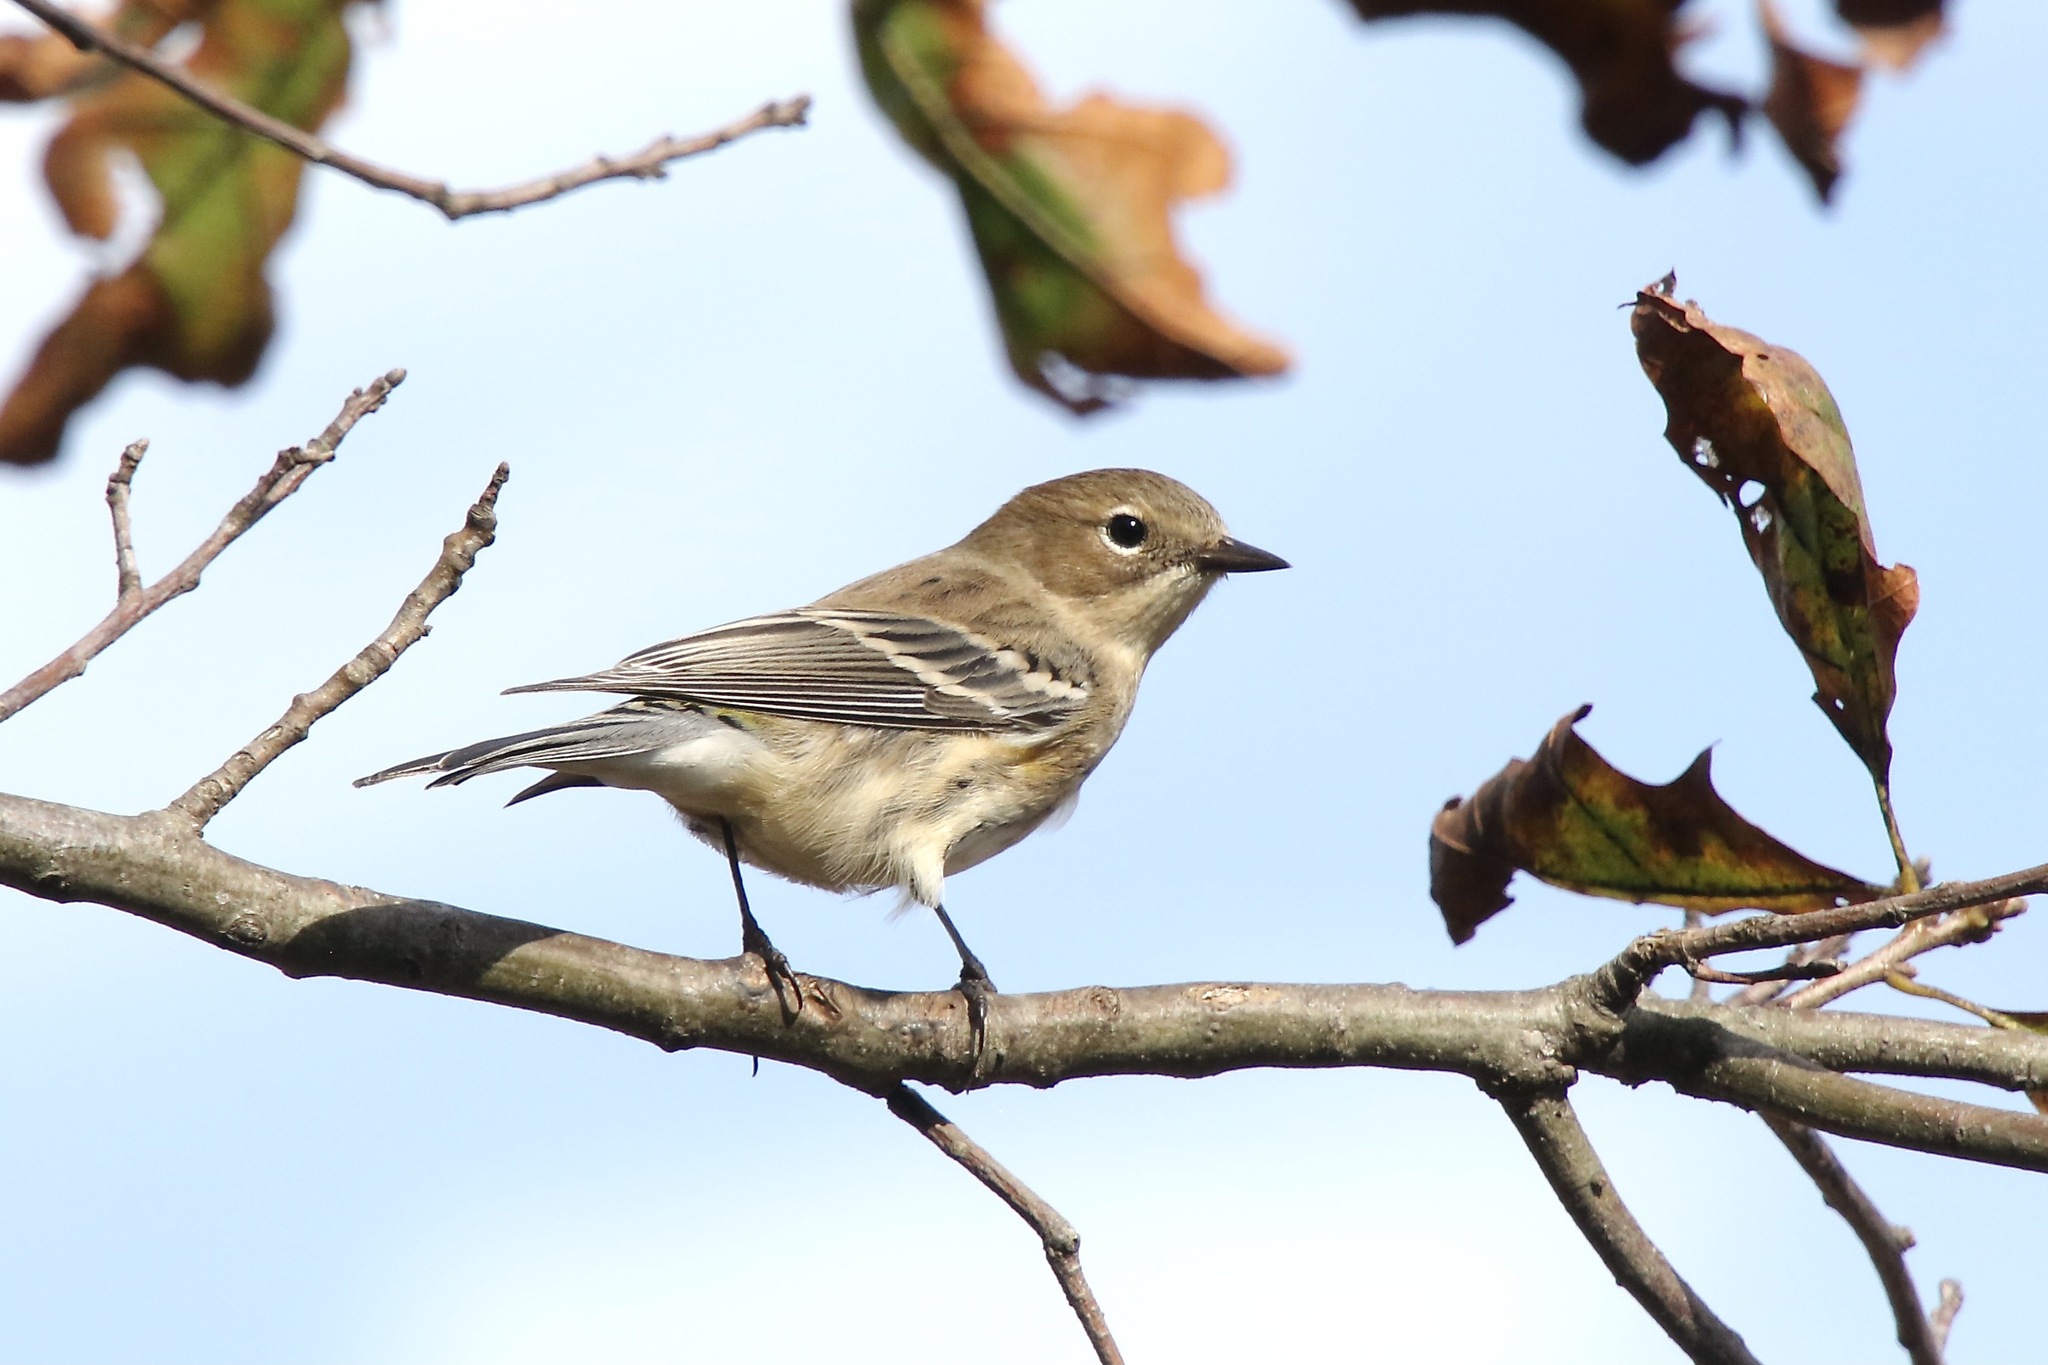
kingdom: Animalia
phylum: Chordata
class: Aves
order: Passeriformes
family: Parulidae
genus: Setophaga
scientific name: Setophaga coronata
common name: Myrtle warbler
